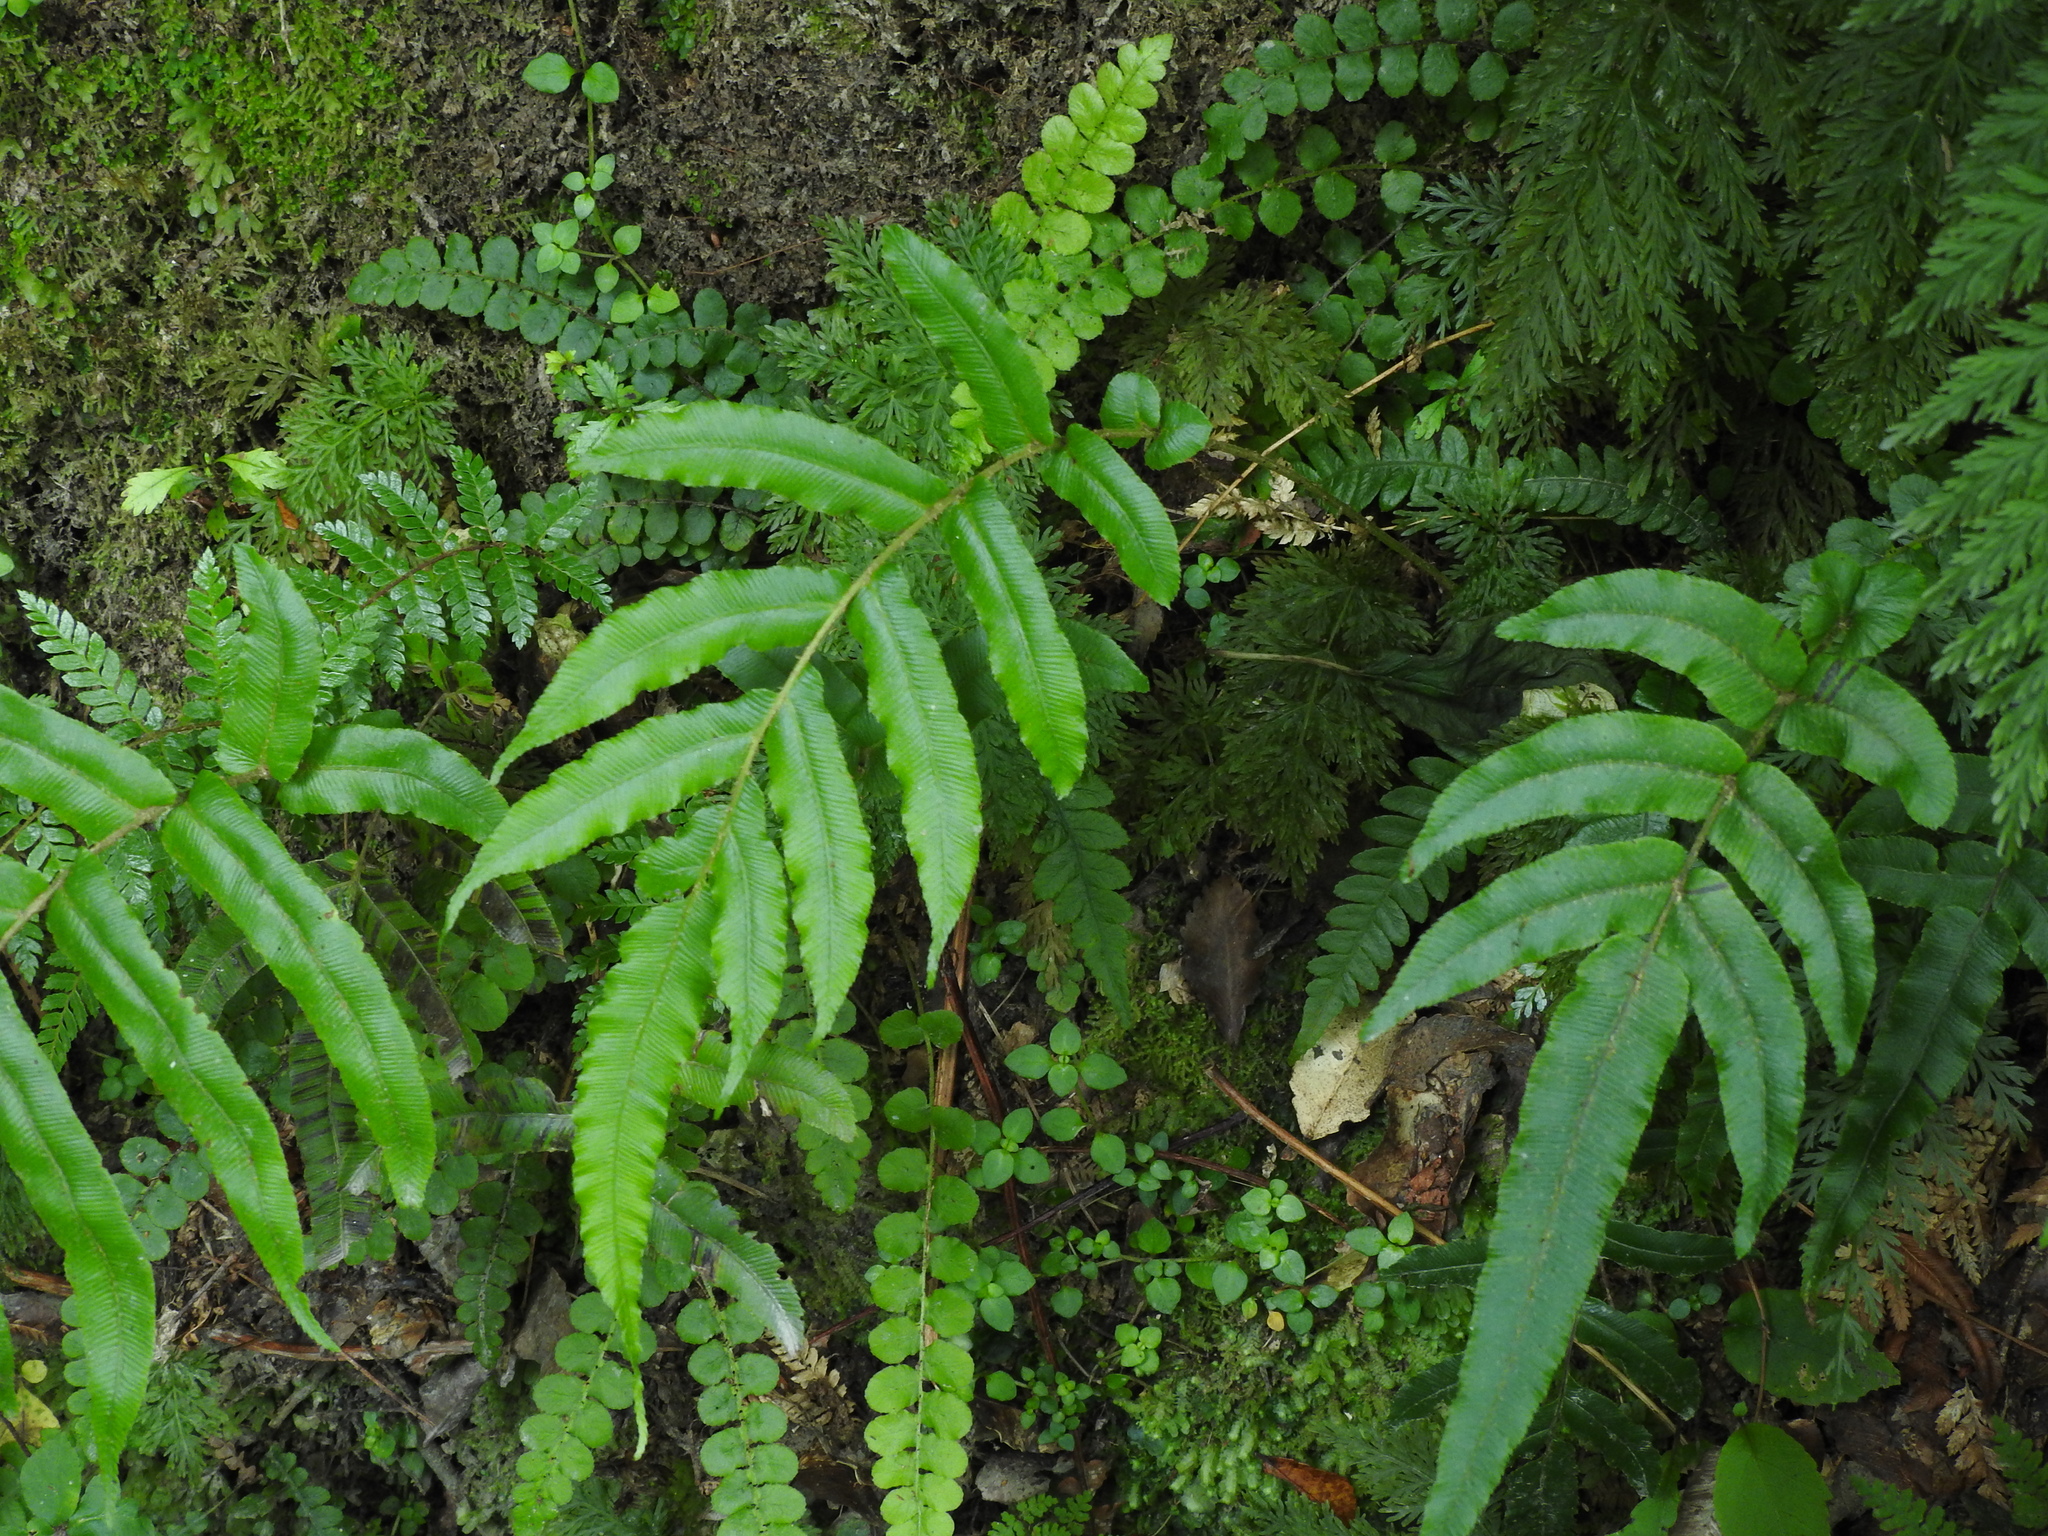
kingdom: Plantae
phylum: Tracheophyta
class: Polypodiopsida
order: Polypodiales
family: Blechnaceae
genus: Parablechnum
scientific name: Parablechnum novae-zelandiae
